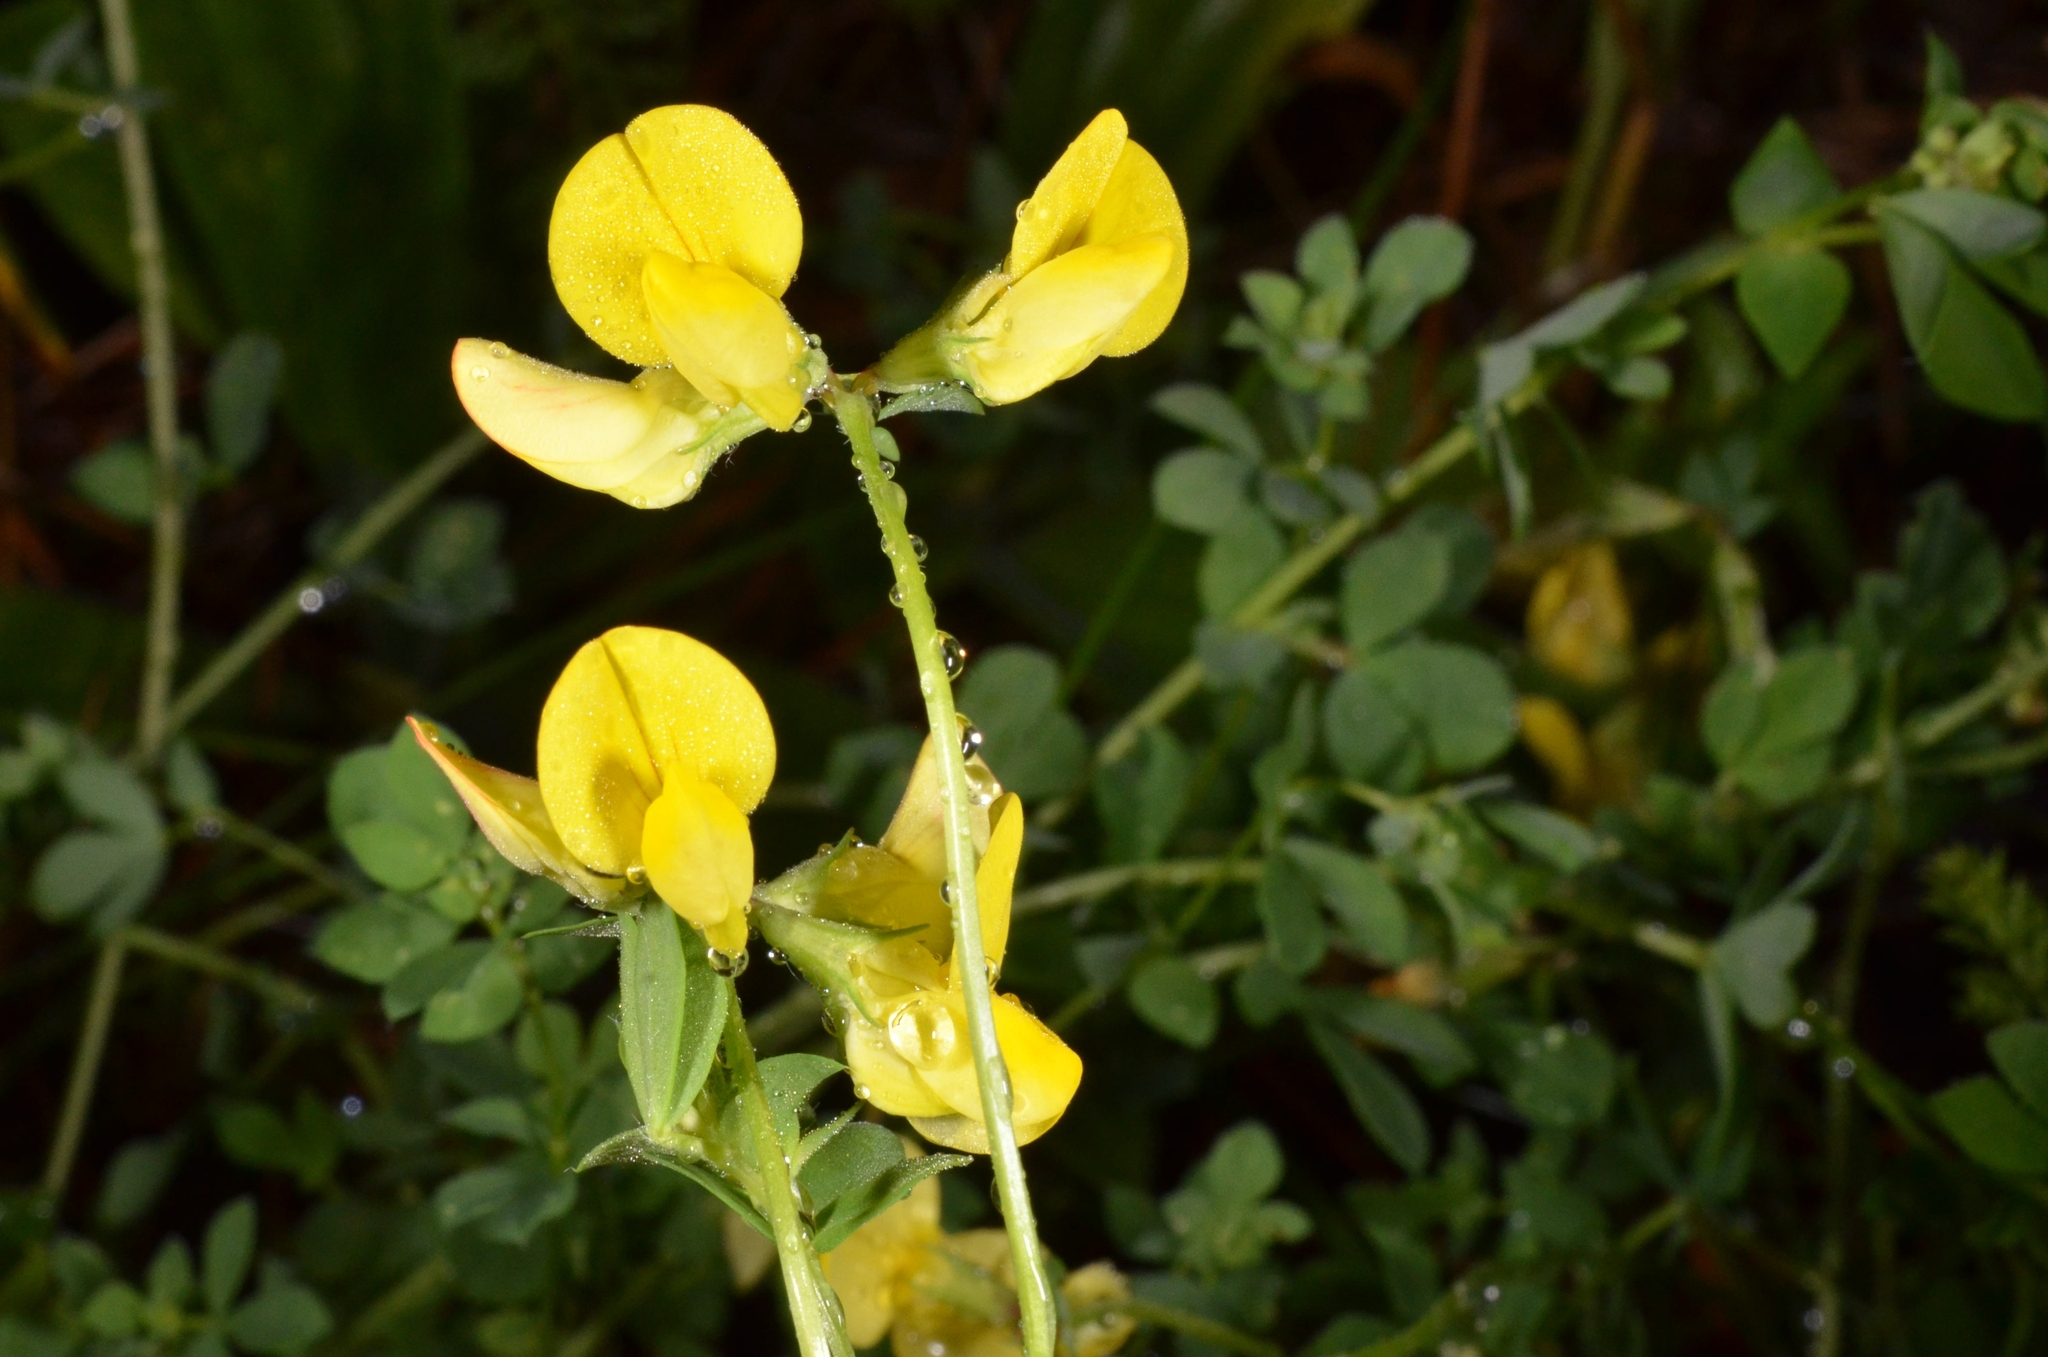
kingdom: Plantae
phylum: Tracheophyta
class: Magnoliopsida
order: Fabales
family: Fabaceae
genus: Lotus
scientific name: Lotus corniculatus
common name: Common bird's-foot-trefoil
